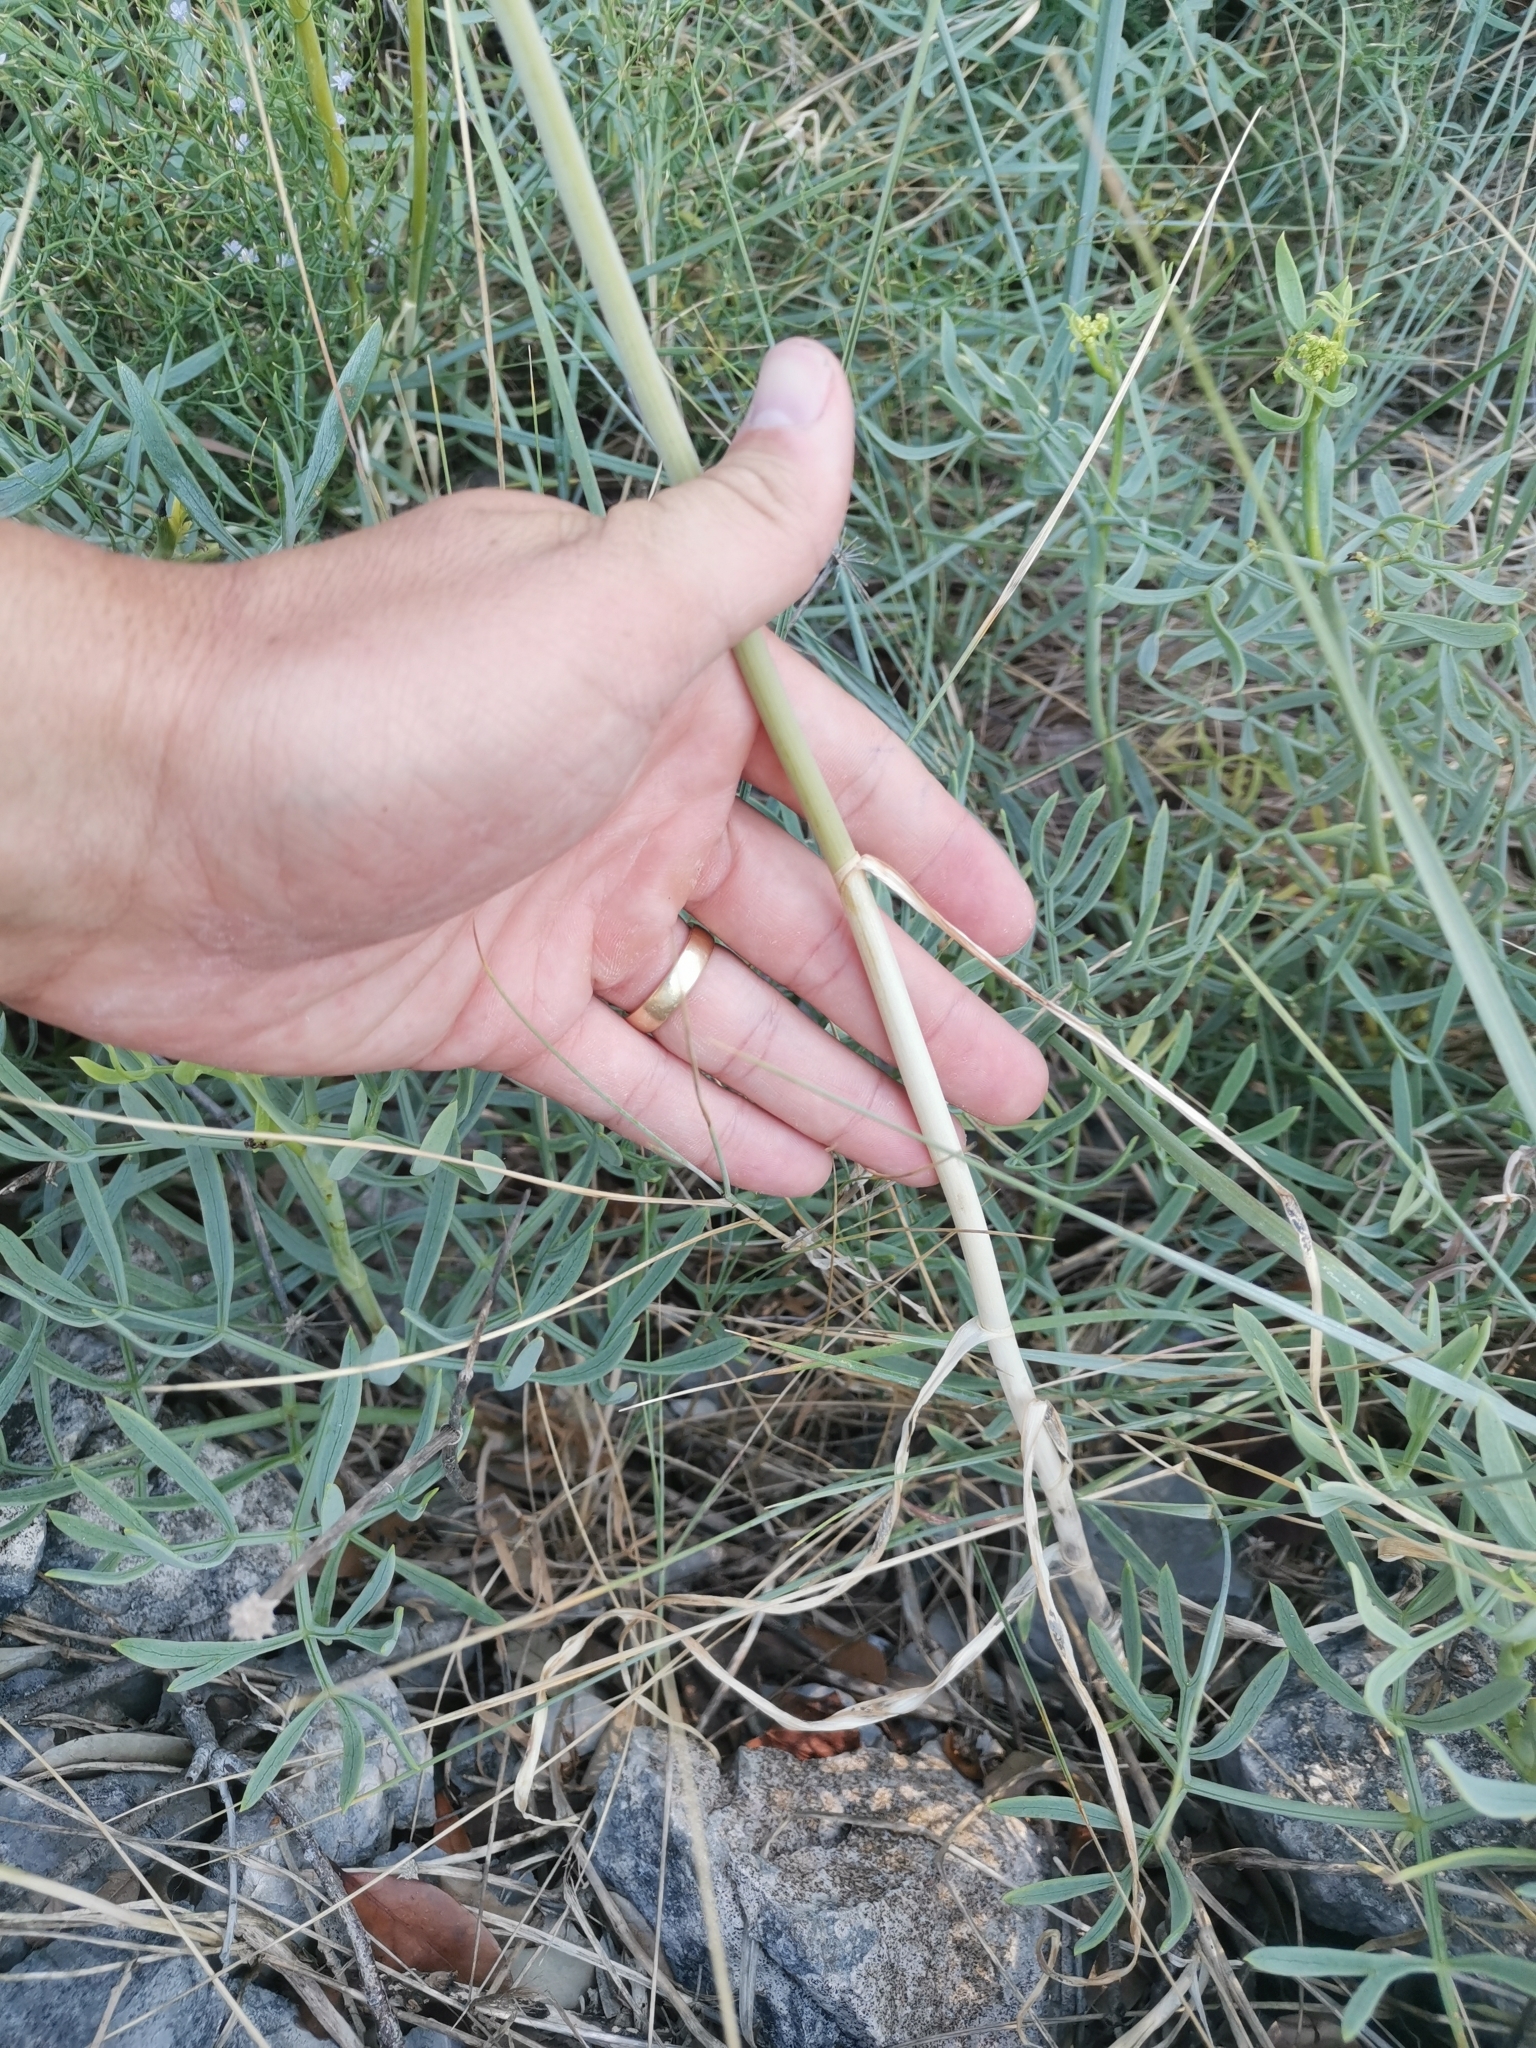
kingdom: Plantae
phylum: Tracheophyta
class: Liliopsida
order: Asparagales
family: Amaryllidaceae
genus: Allium
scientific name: Allium commutatum
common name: Sea garlic
